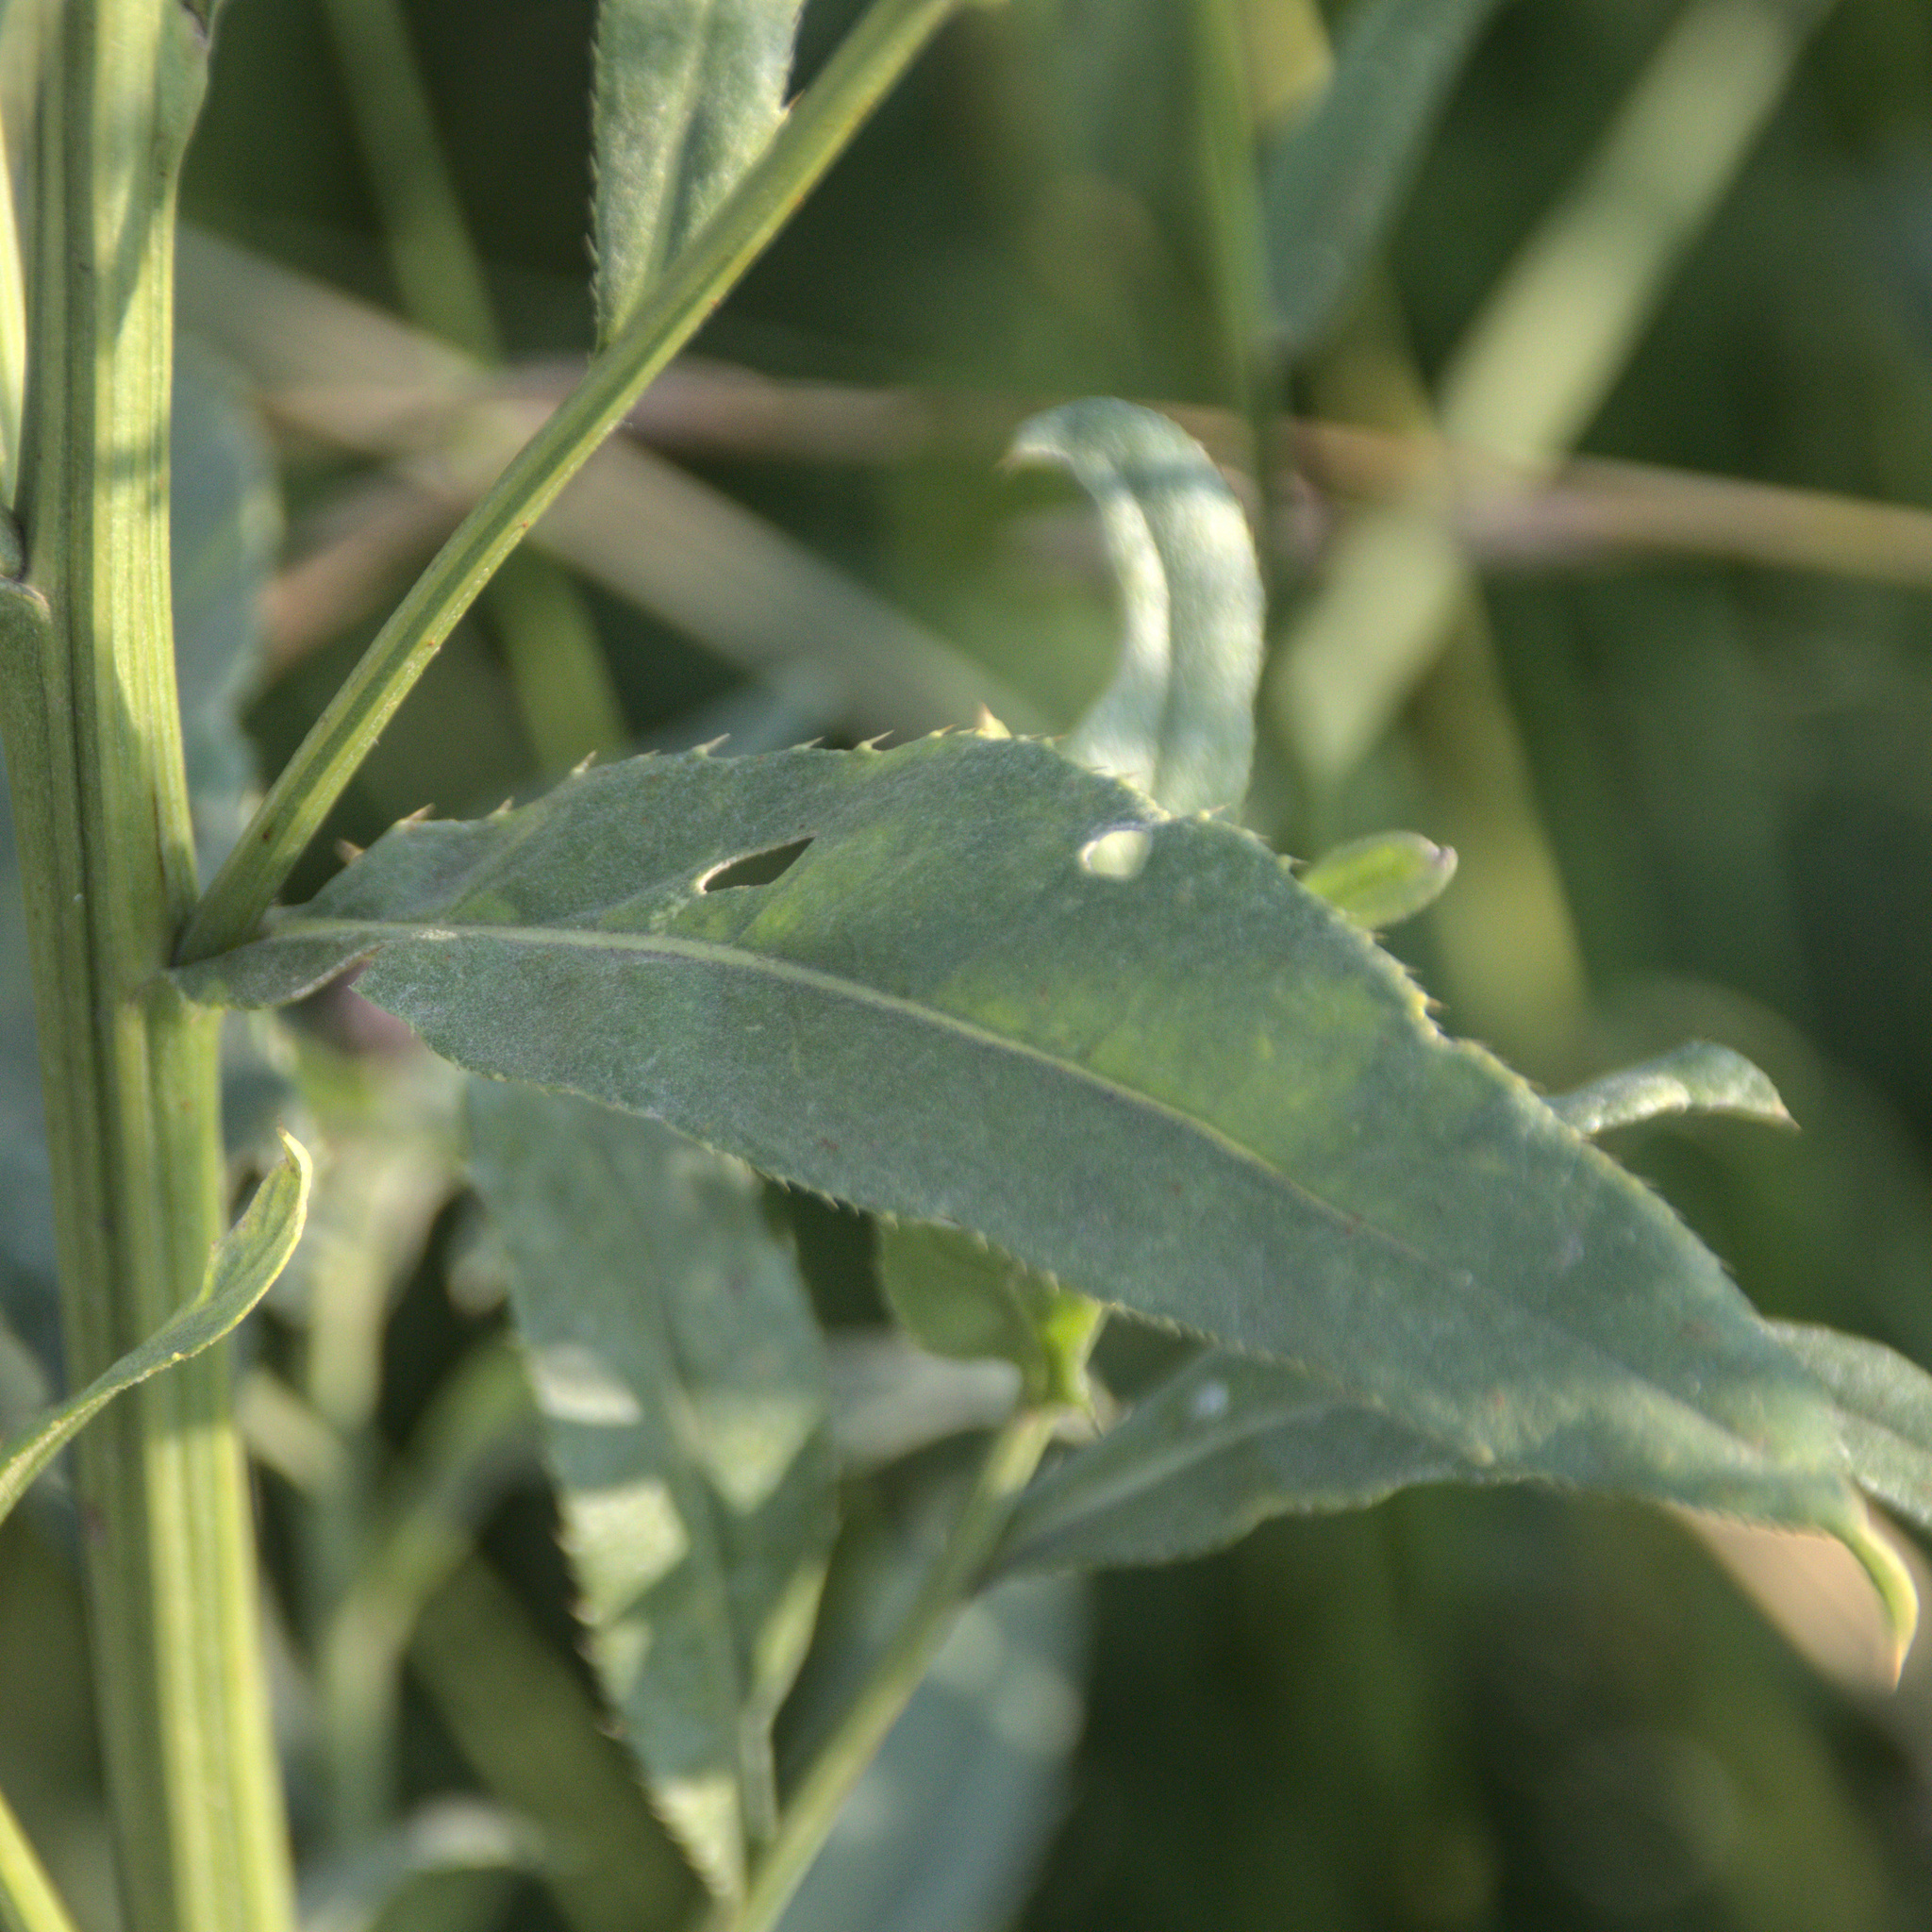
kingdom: Plantae
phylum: Tracheophyta
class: Magnoliopsida
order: Asterales
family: Asteraceae
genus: Cirsium
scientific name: Cirsium arvense
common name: Creeping thistle
